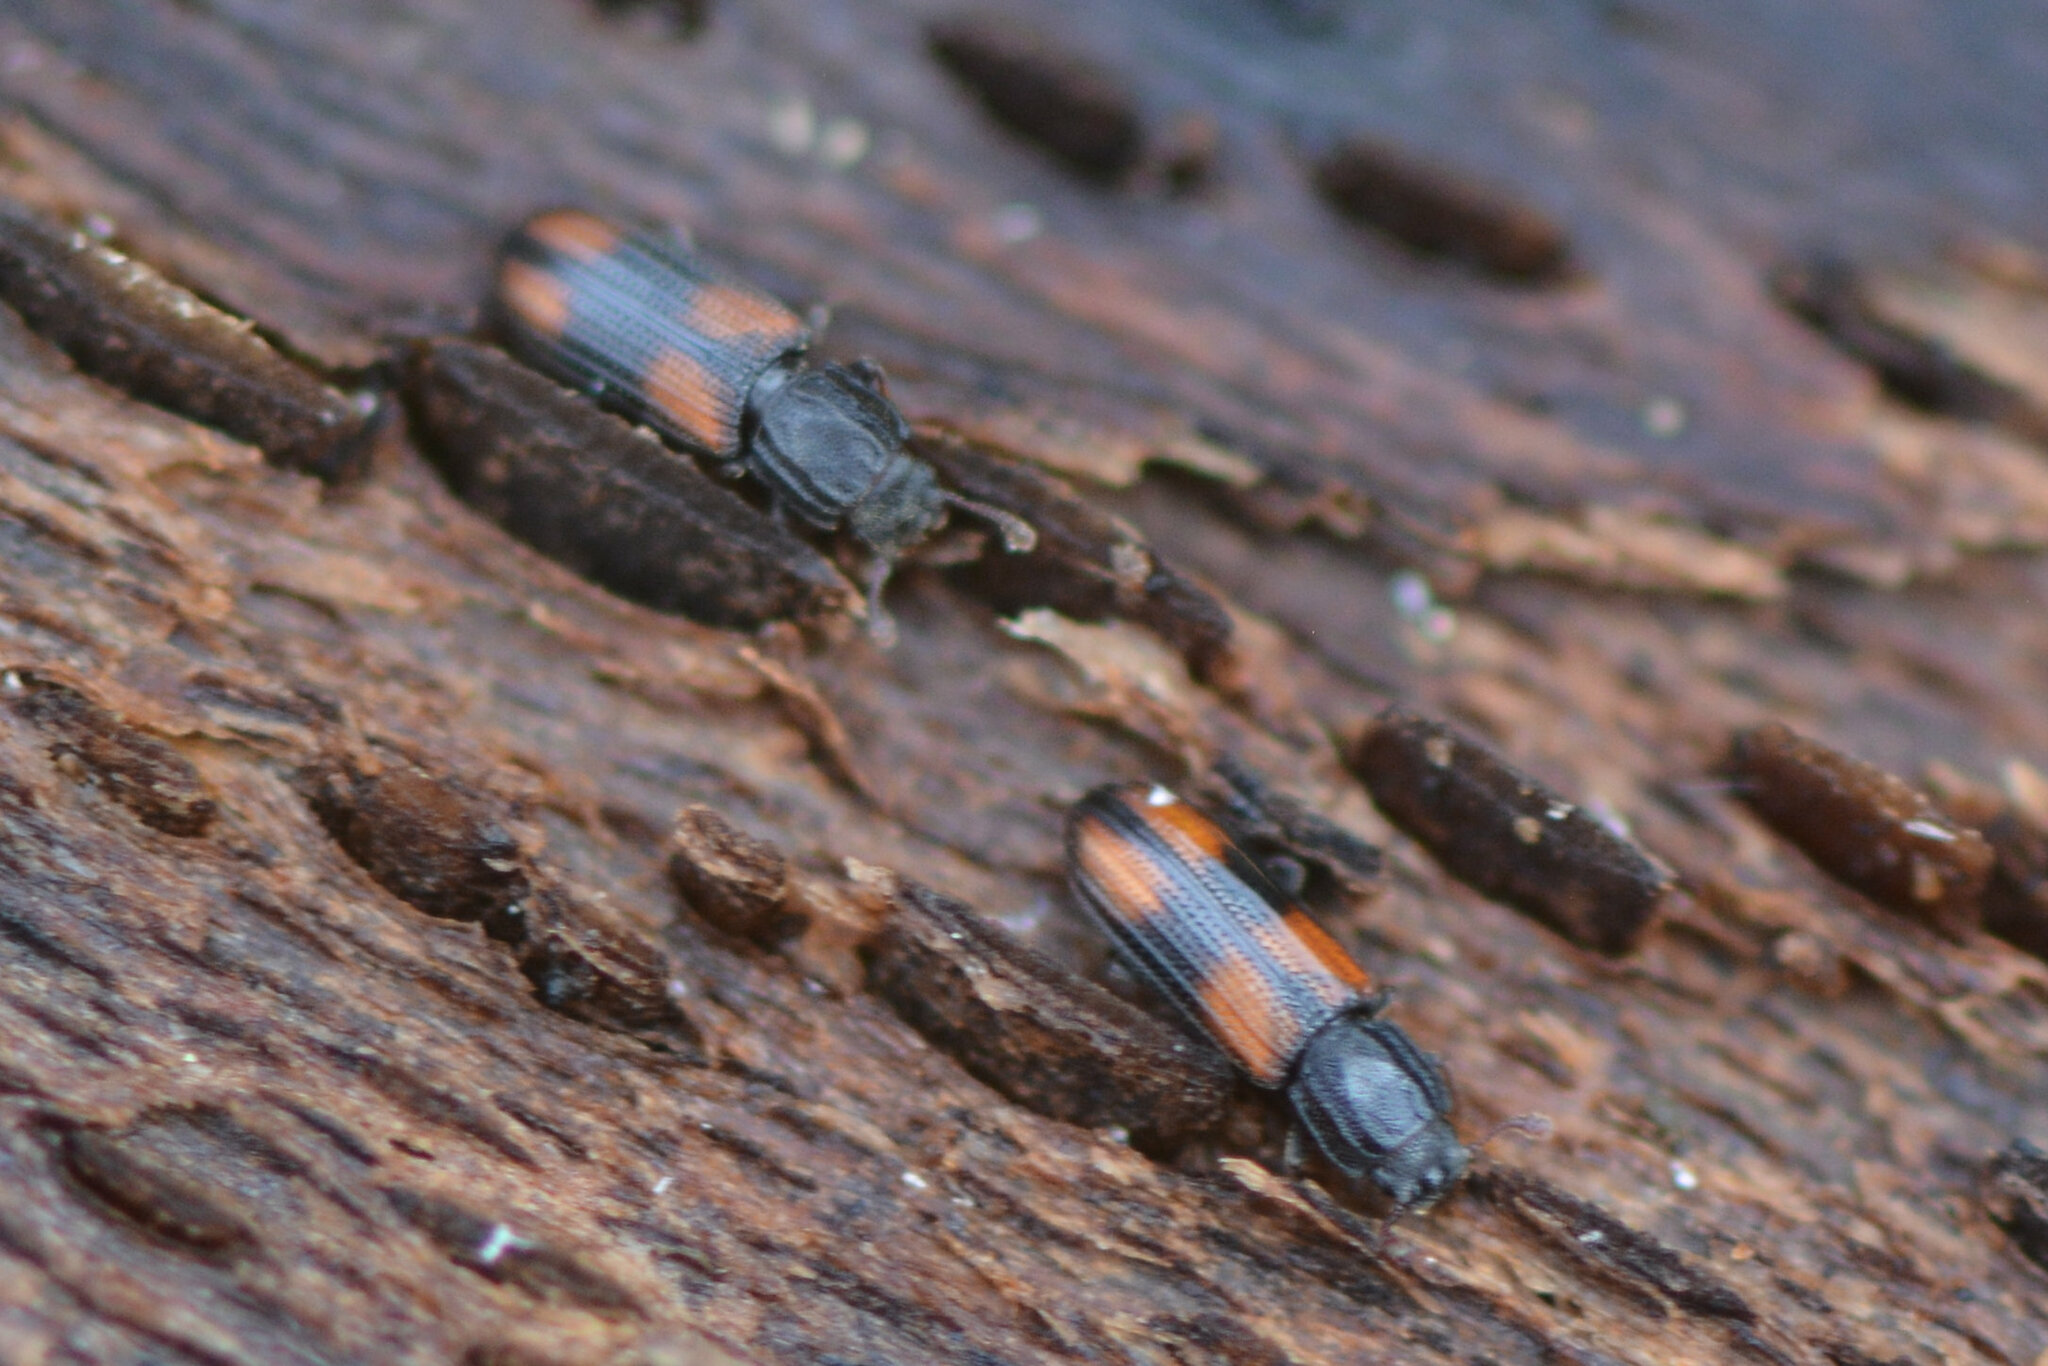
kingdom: Animalia
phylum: Arthropoda
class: Insecta
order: Coleoptera
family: Zopheridae
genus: Bitoma
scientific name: Bitoma crenata
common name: Bark beetle
